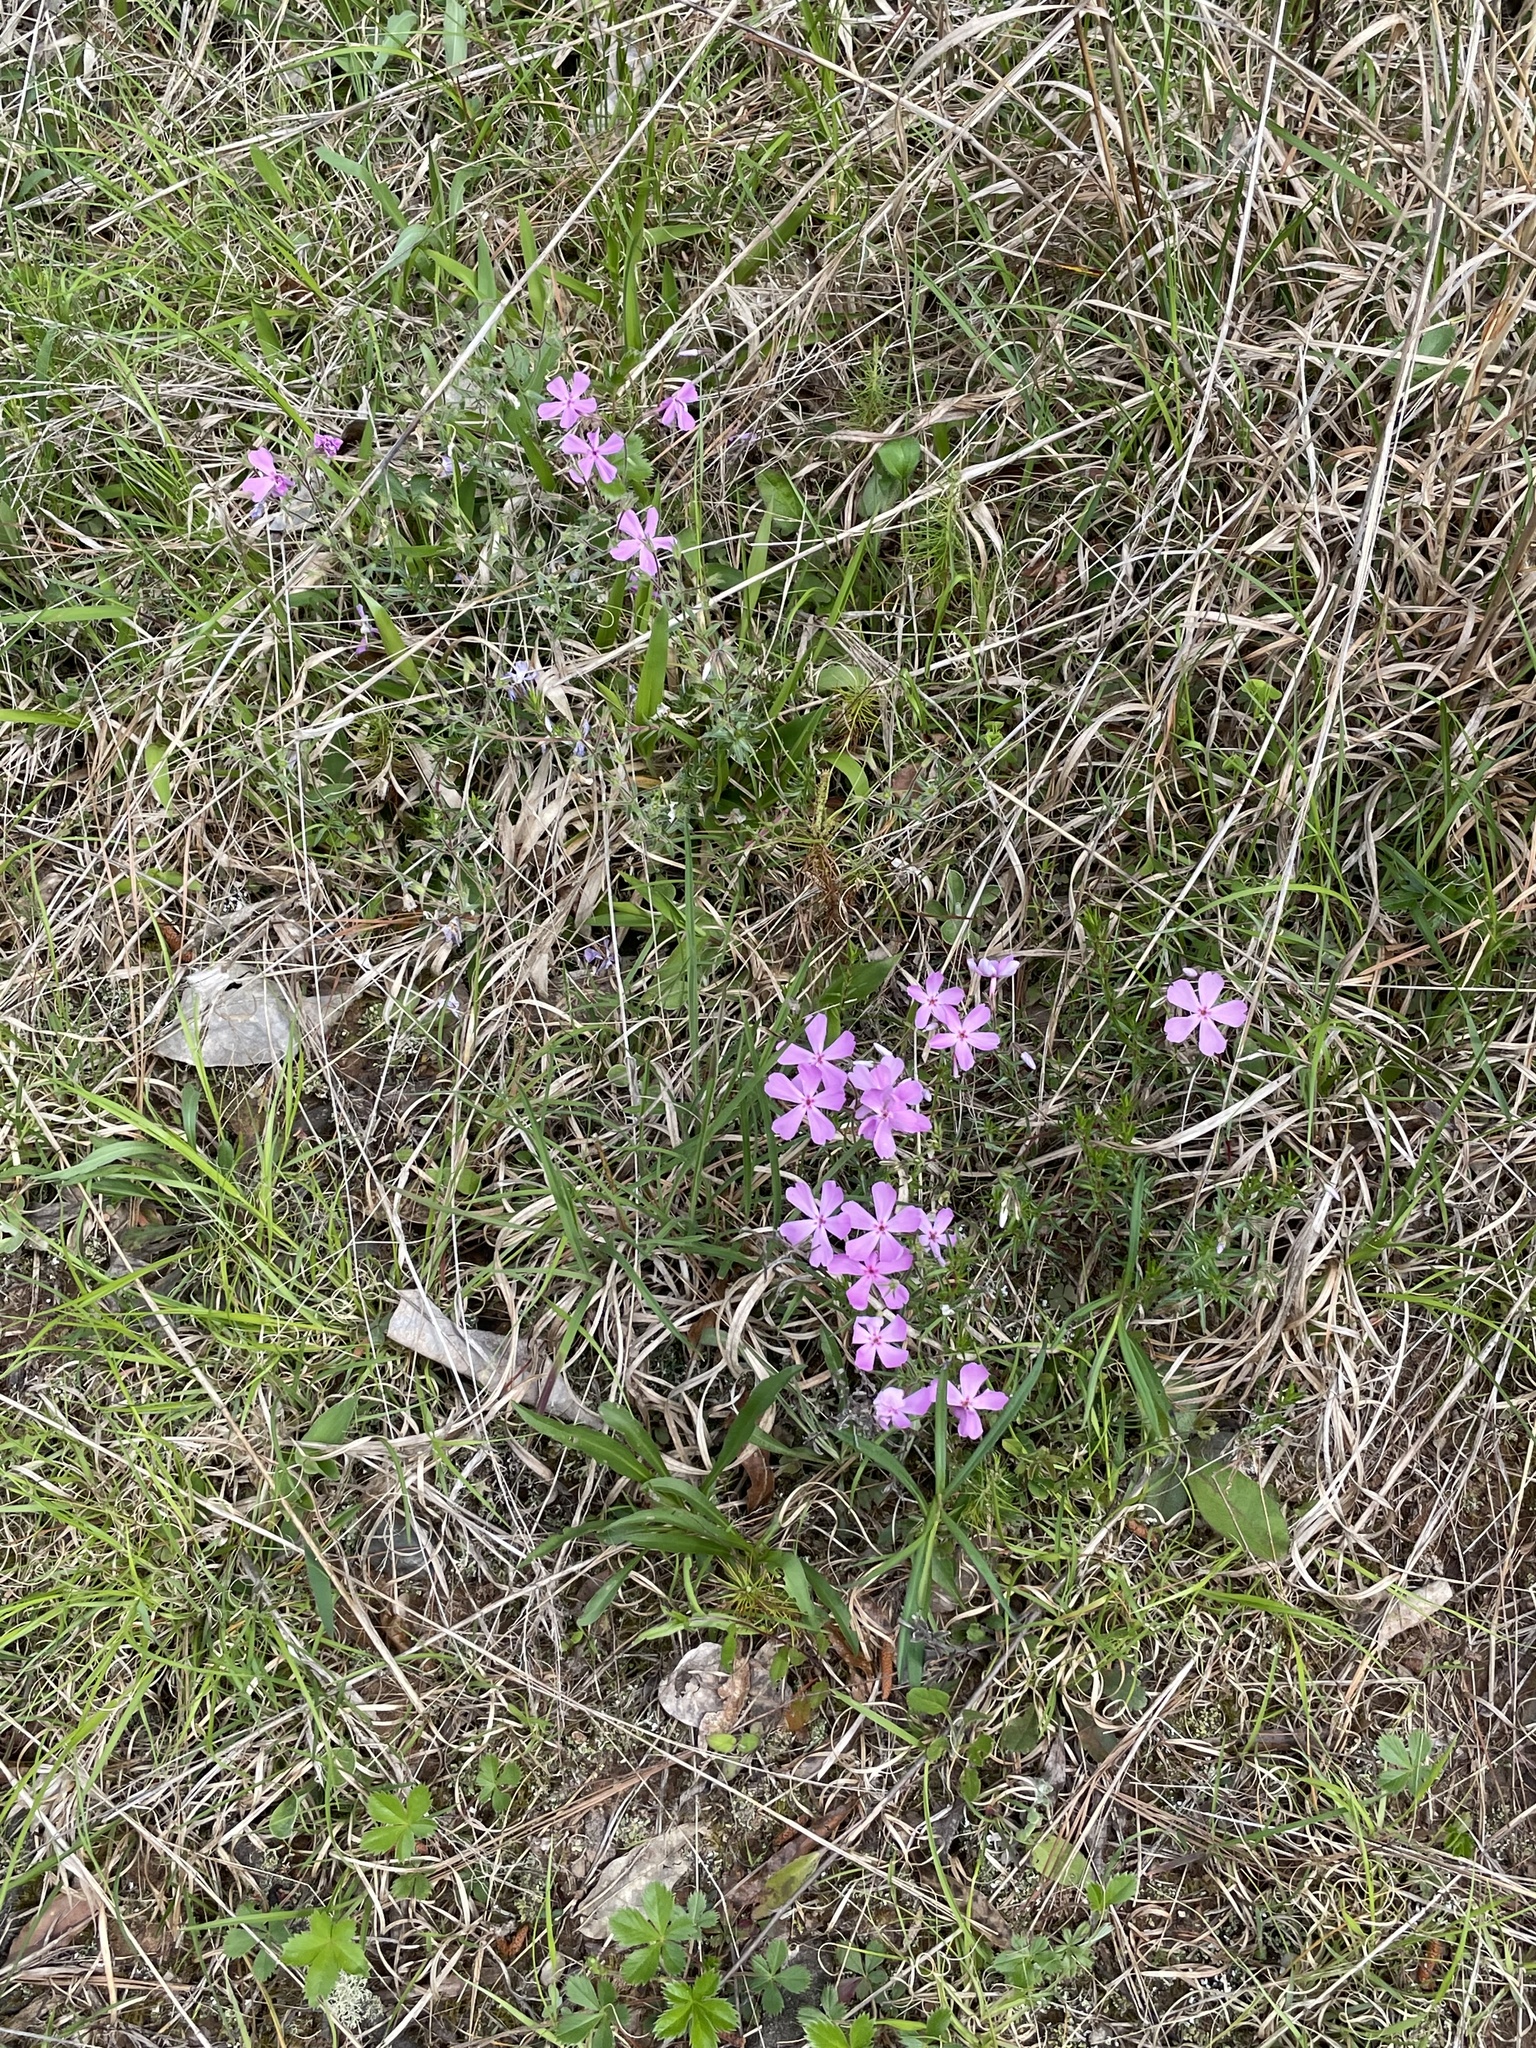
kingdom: Plantae
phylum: Tracheophyta
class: Magnoliopsida
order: Ericales
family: Polemoniaceae
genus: Phlox
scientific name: Phlox nivalis
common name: Trailing phlox
